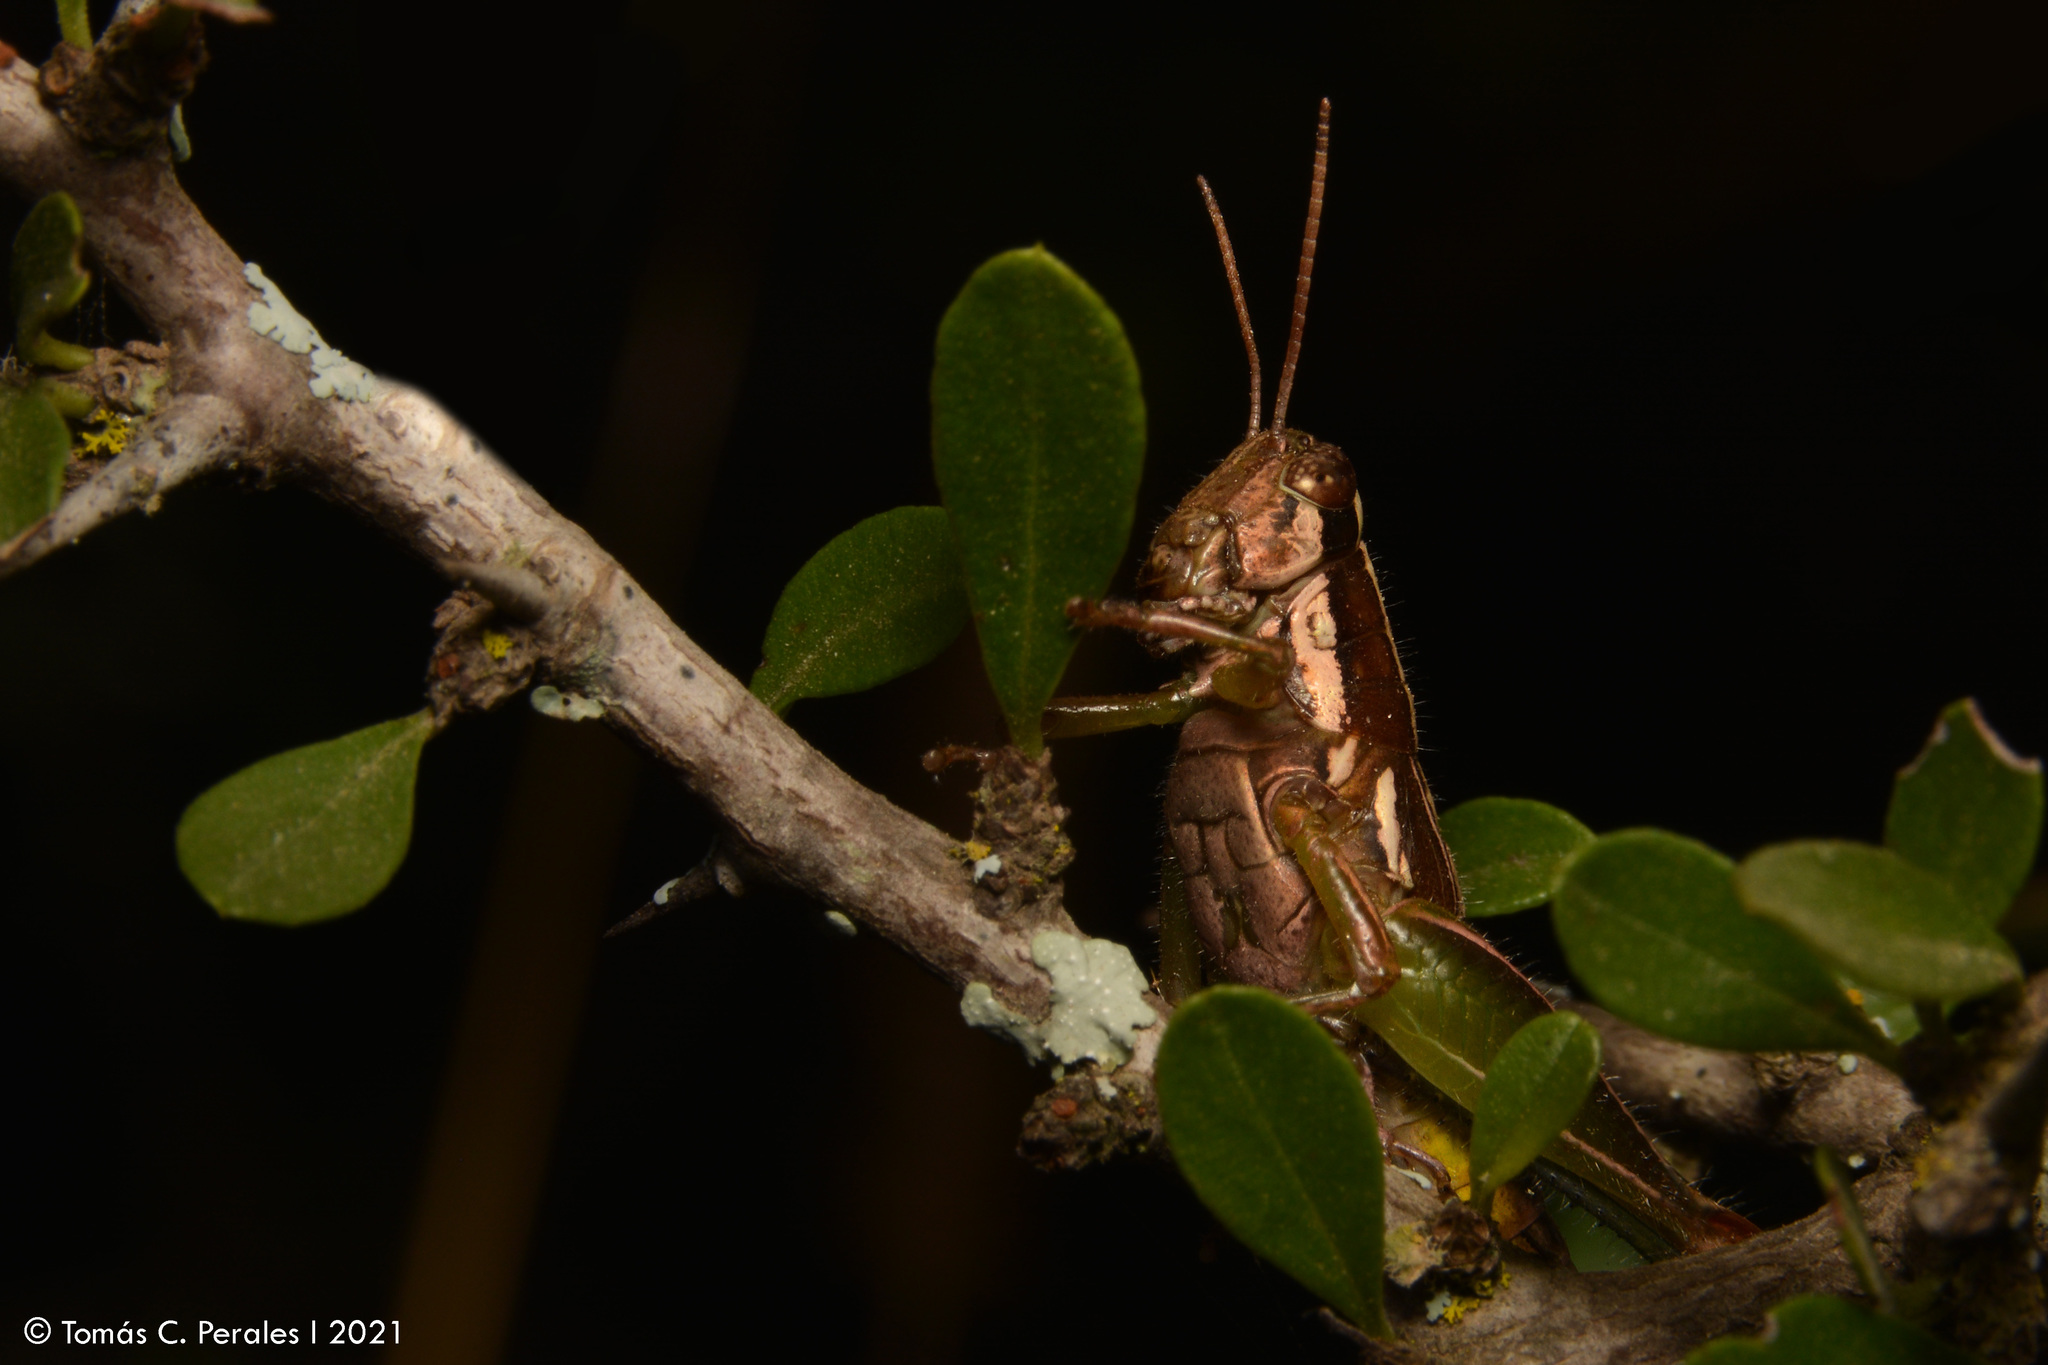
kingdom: Animalia
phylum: Arthropoda
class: Insecta
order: Orthoptera
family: Acrididae
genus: Neopedies
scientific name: Neopedies brunneri
